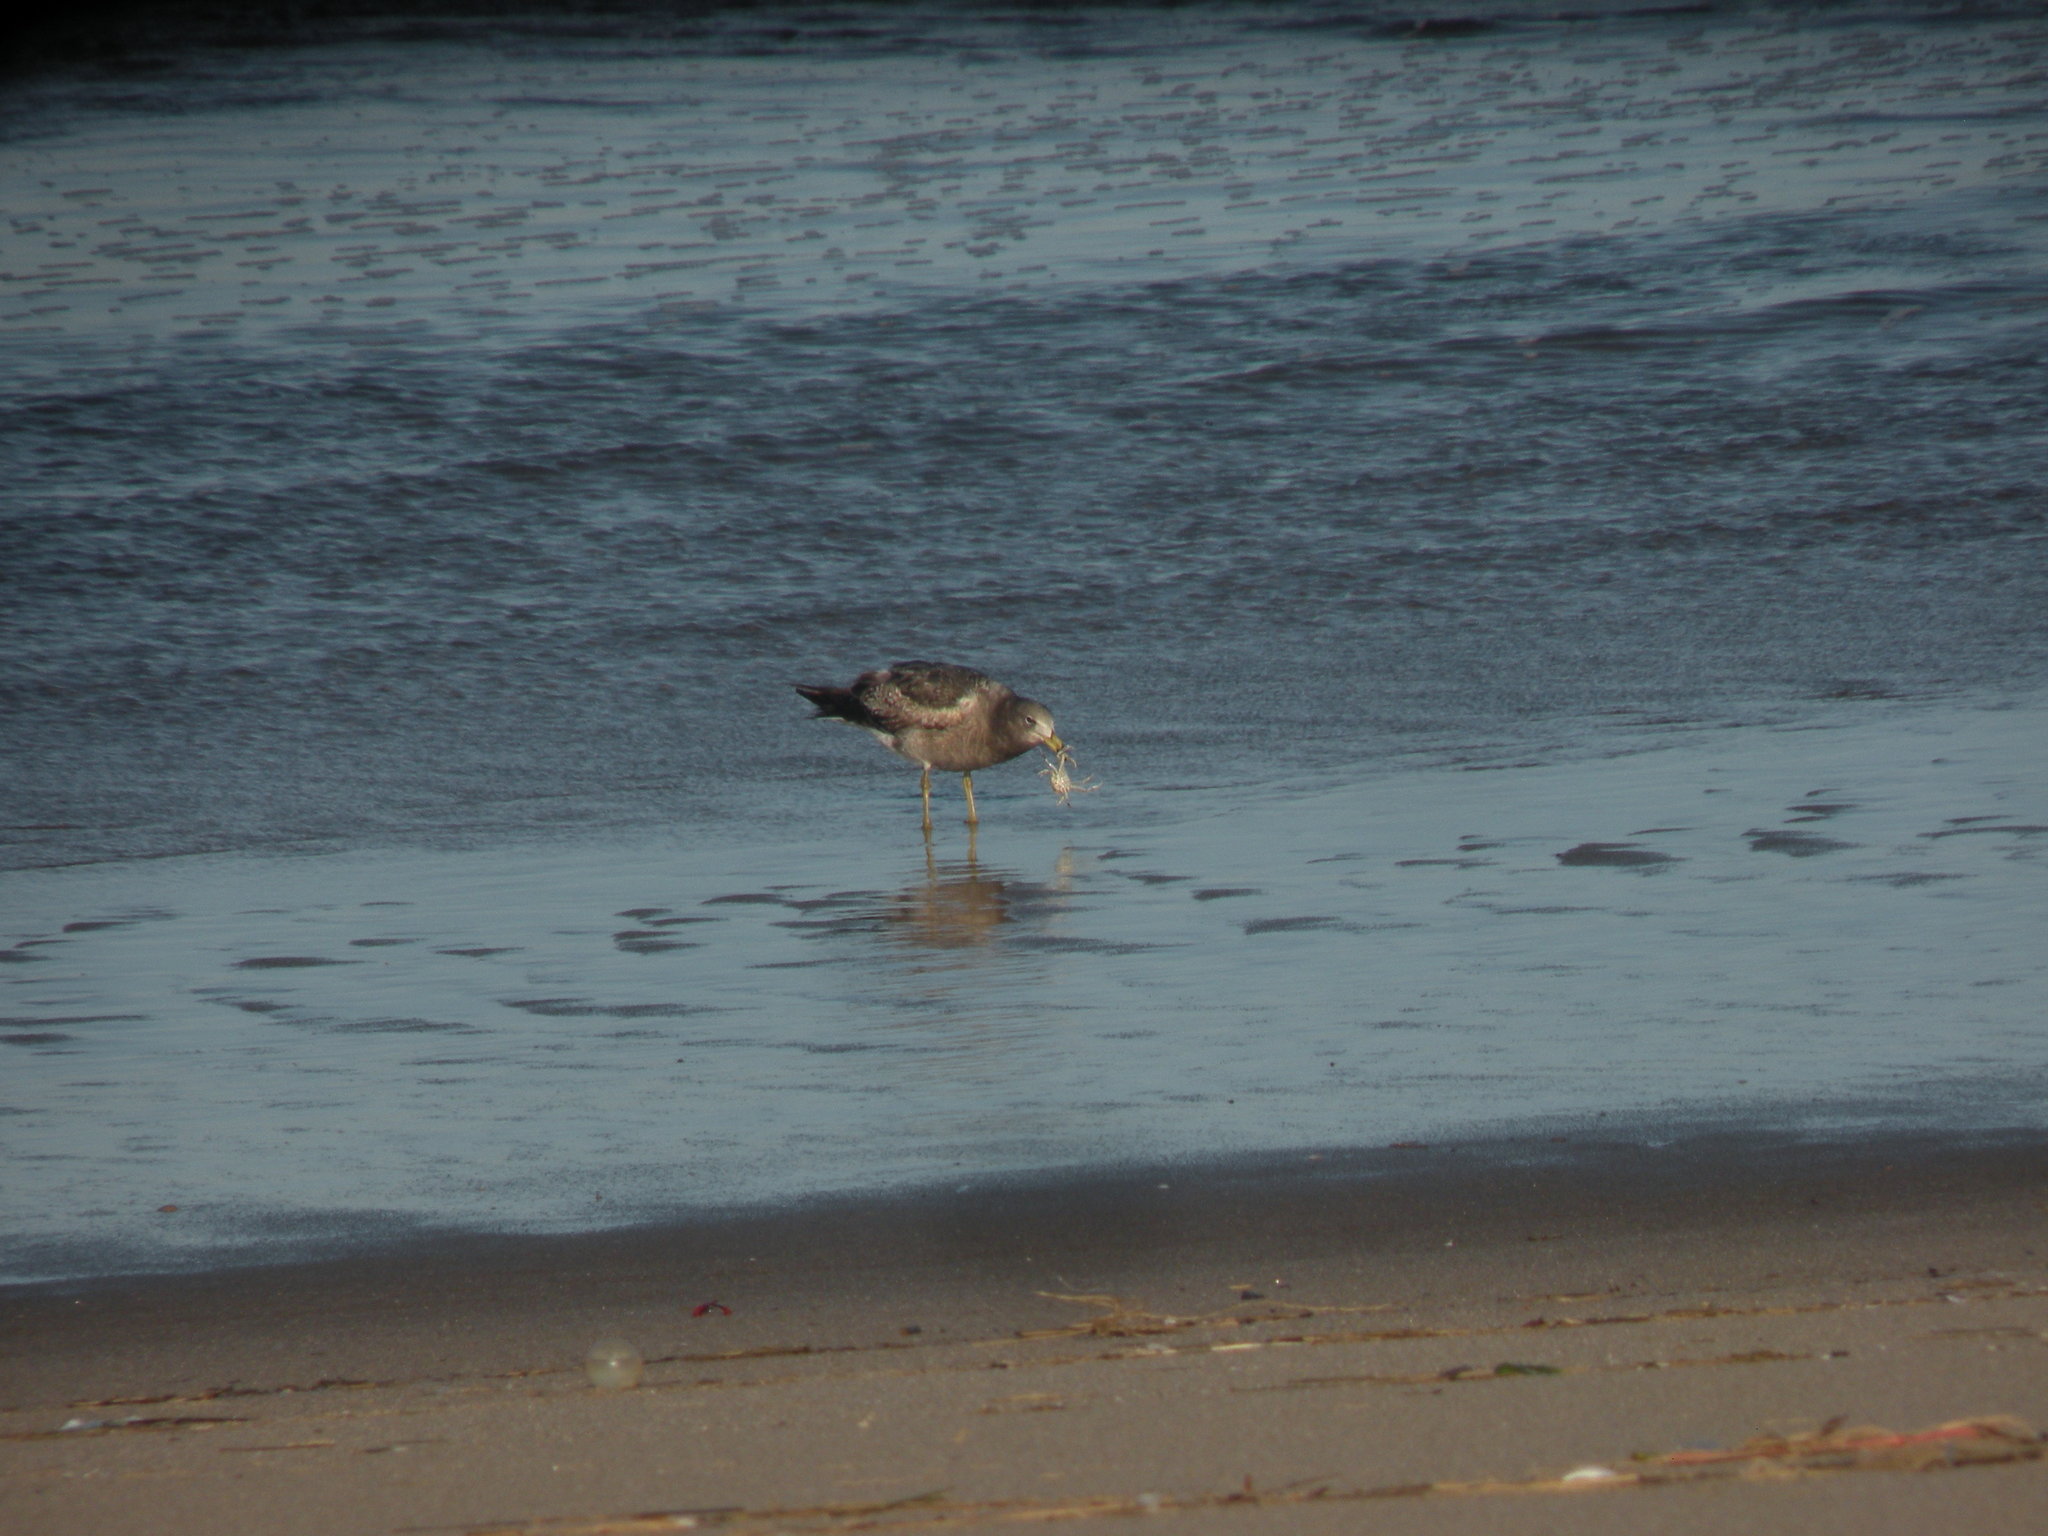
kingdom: Animalia
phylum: Chordata
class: Aves
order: Charadriiformes
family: Laridae
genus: Larus
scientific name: Larus atlanticus
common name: Olrog's gull
